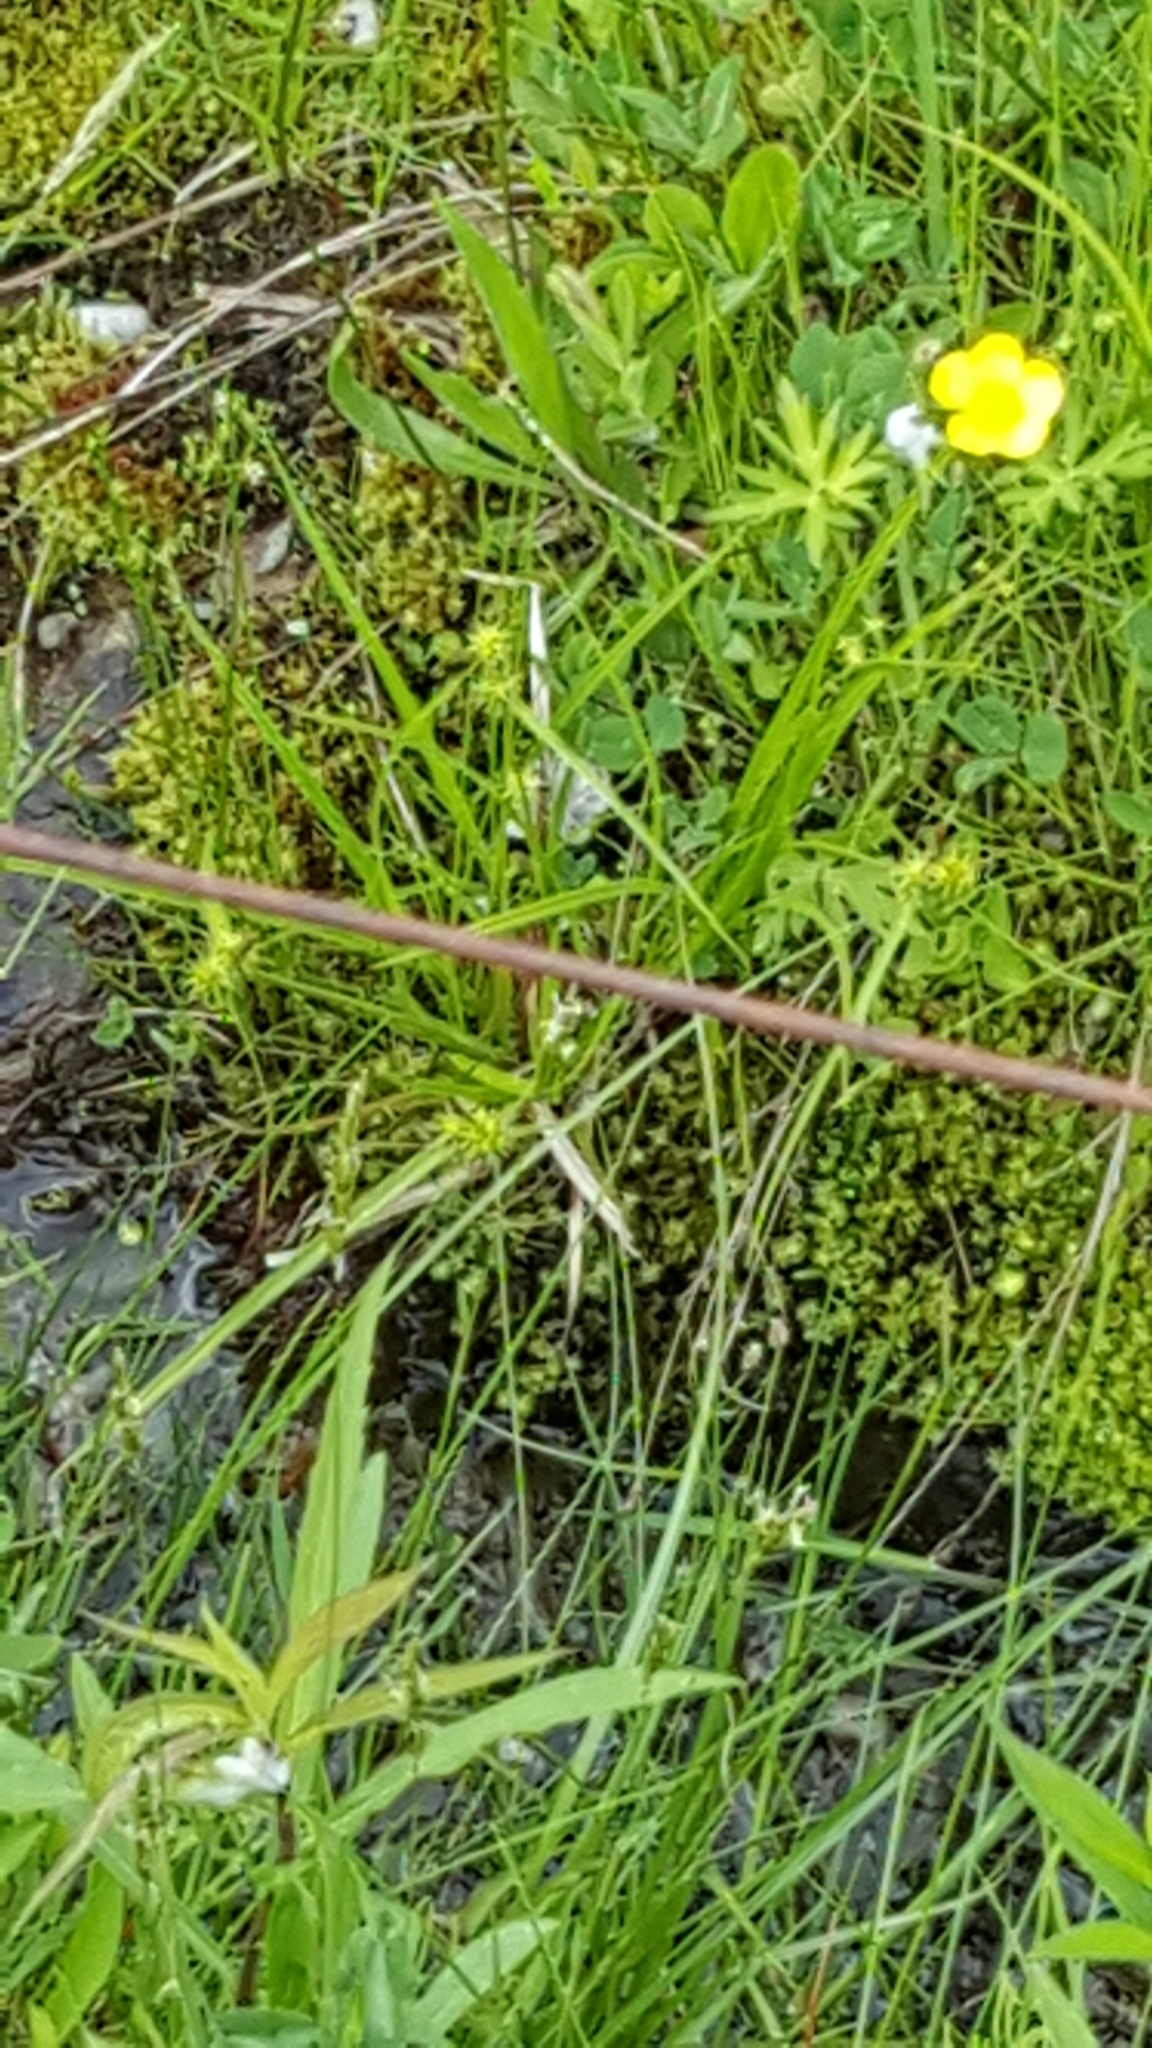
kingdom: Plantae
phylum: Tracheophyta
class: Liliopsida
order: Poales
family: Cyperaceae
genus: Carex
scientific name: Carex flava
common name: Large yellow-sedge
